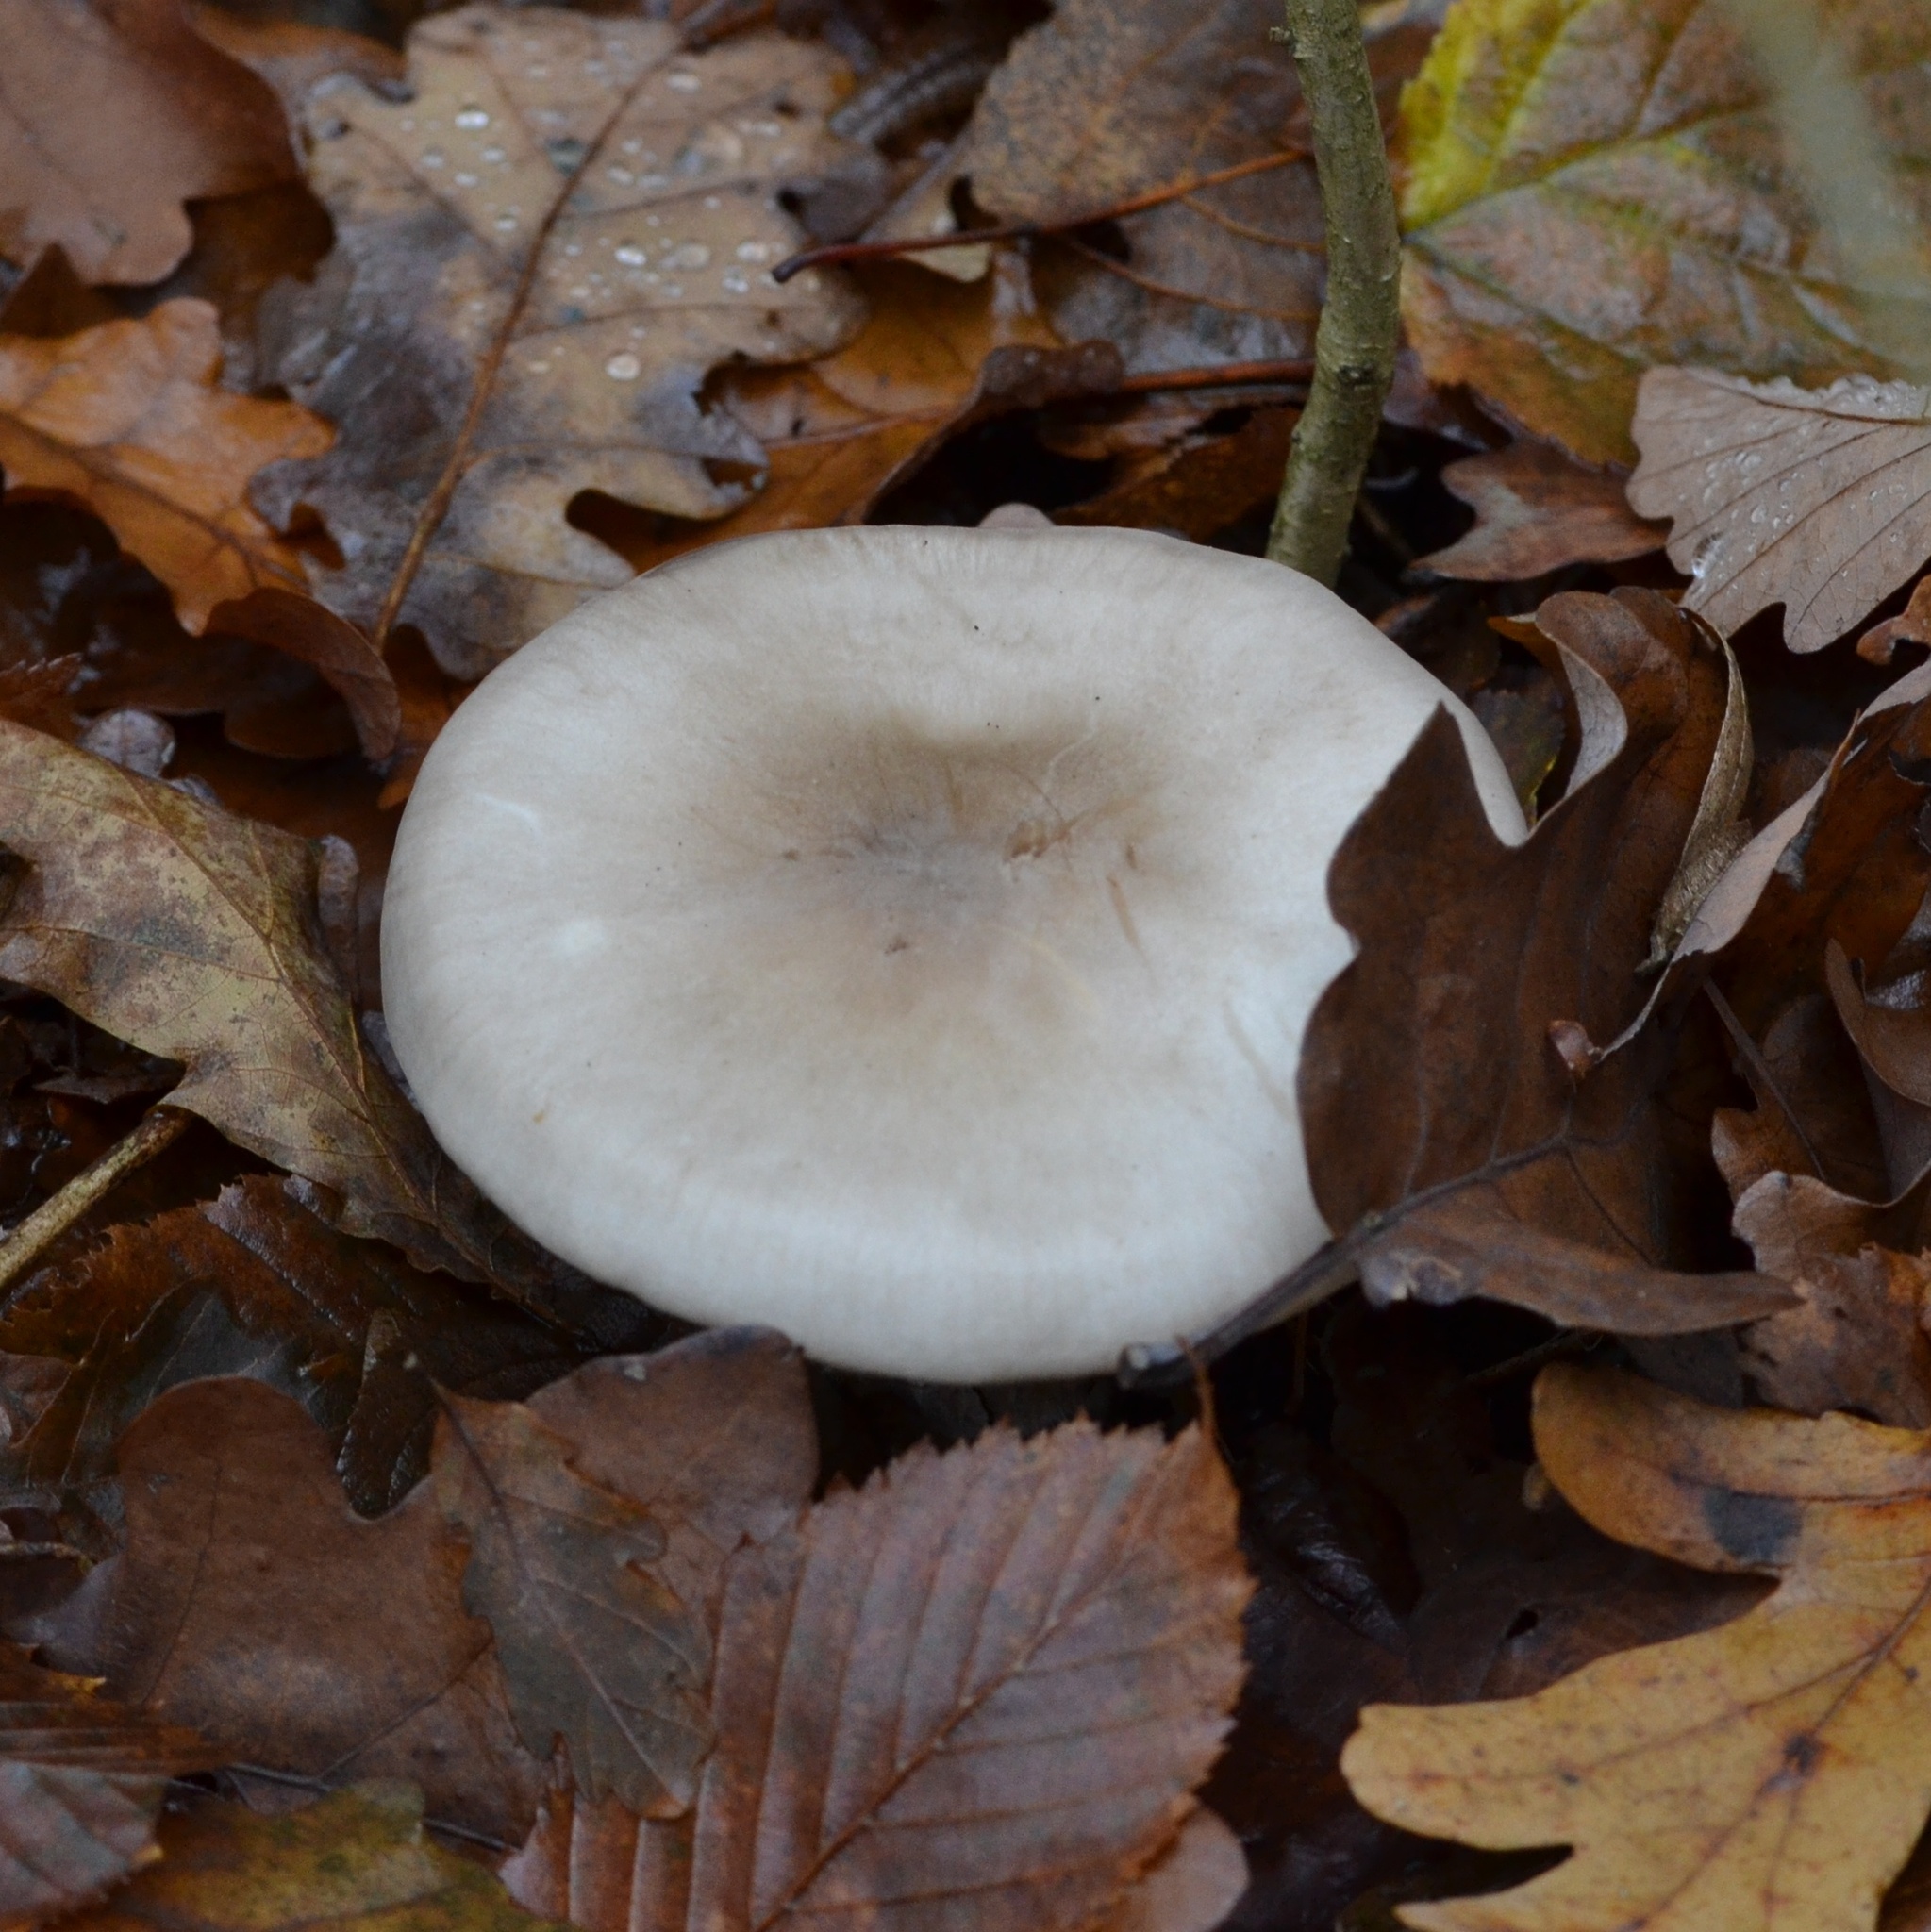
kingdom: Fungi
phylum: Basidiomycota
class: Agaricomycetes
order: Agaricales
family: Tricholomataceae
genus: Clitocybe
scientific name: Clitocybe nebularis
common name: Clouded agaric
